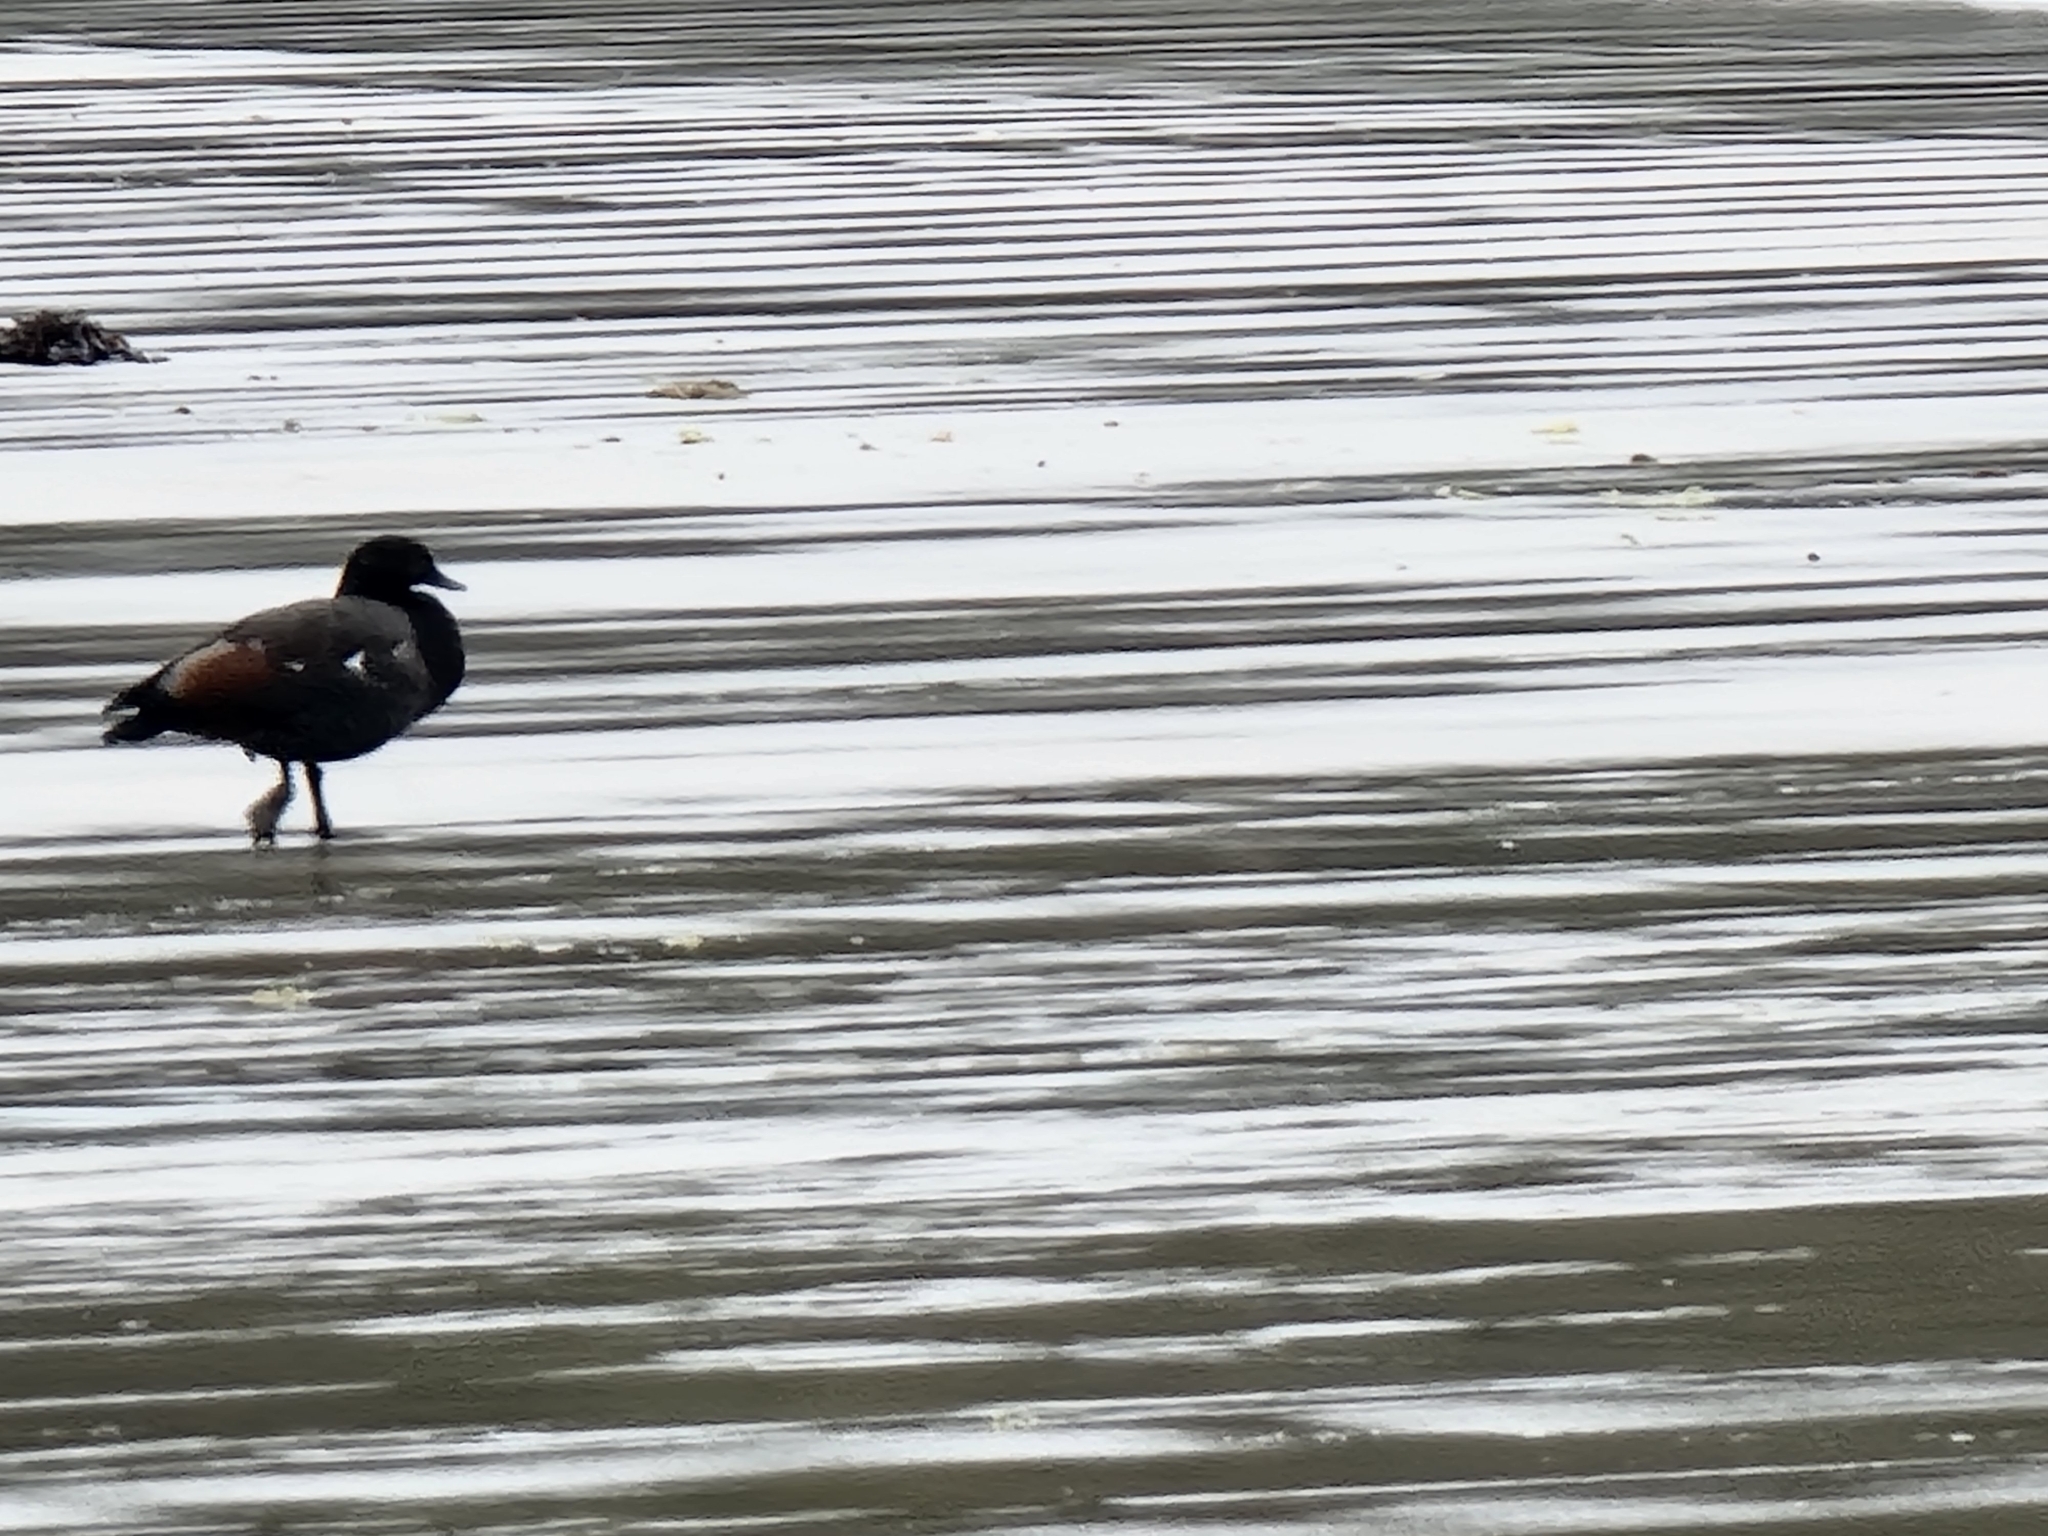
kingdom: Animalia
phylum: Chordata
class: Aves
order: Anseriformes
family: Anatidae
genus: Tadorna
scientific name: Tadorna variegata
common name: Paradise shelduck
